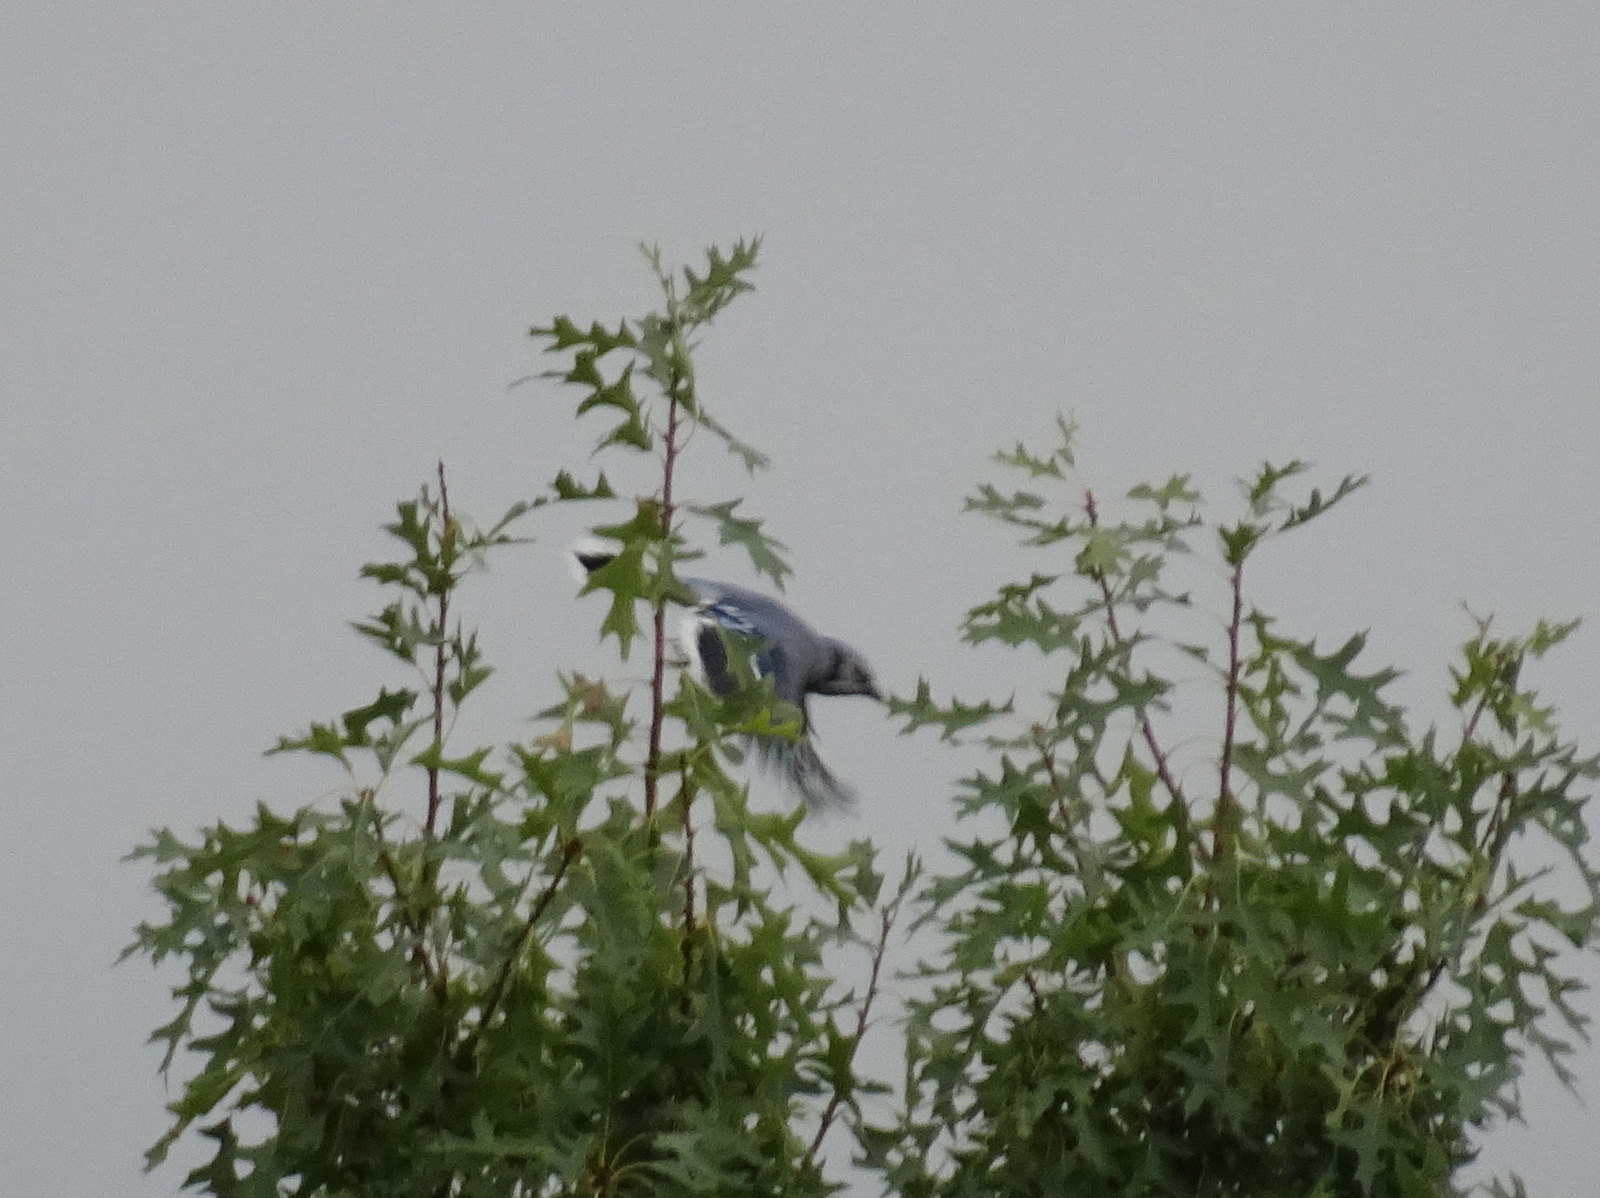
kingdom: Animalia
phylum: Chordata
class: Aves
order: Passeriformes
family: Corvidae
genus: Cyanocitta
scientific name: Cyanocitta cristata
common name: Blue jay
